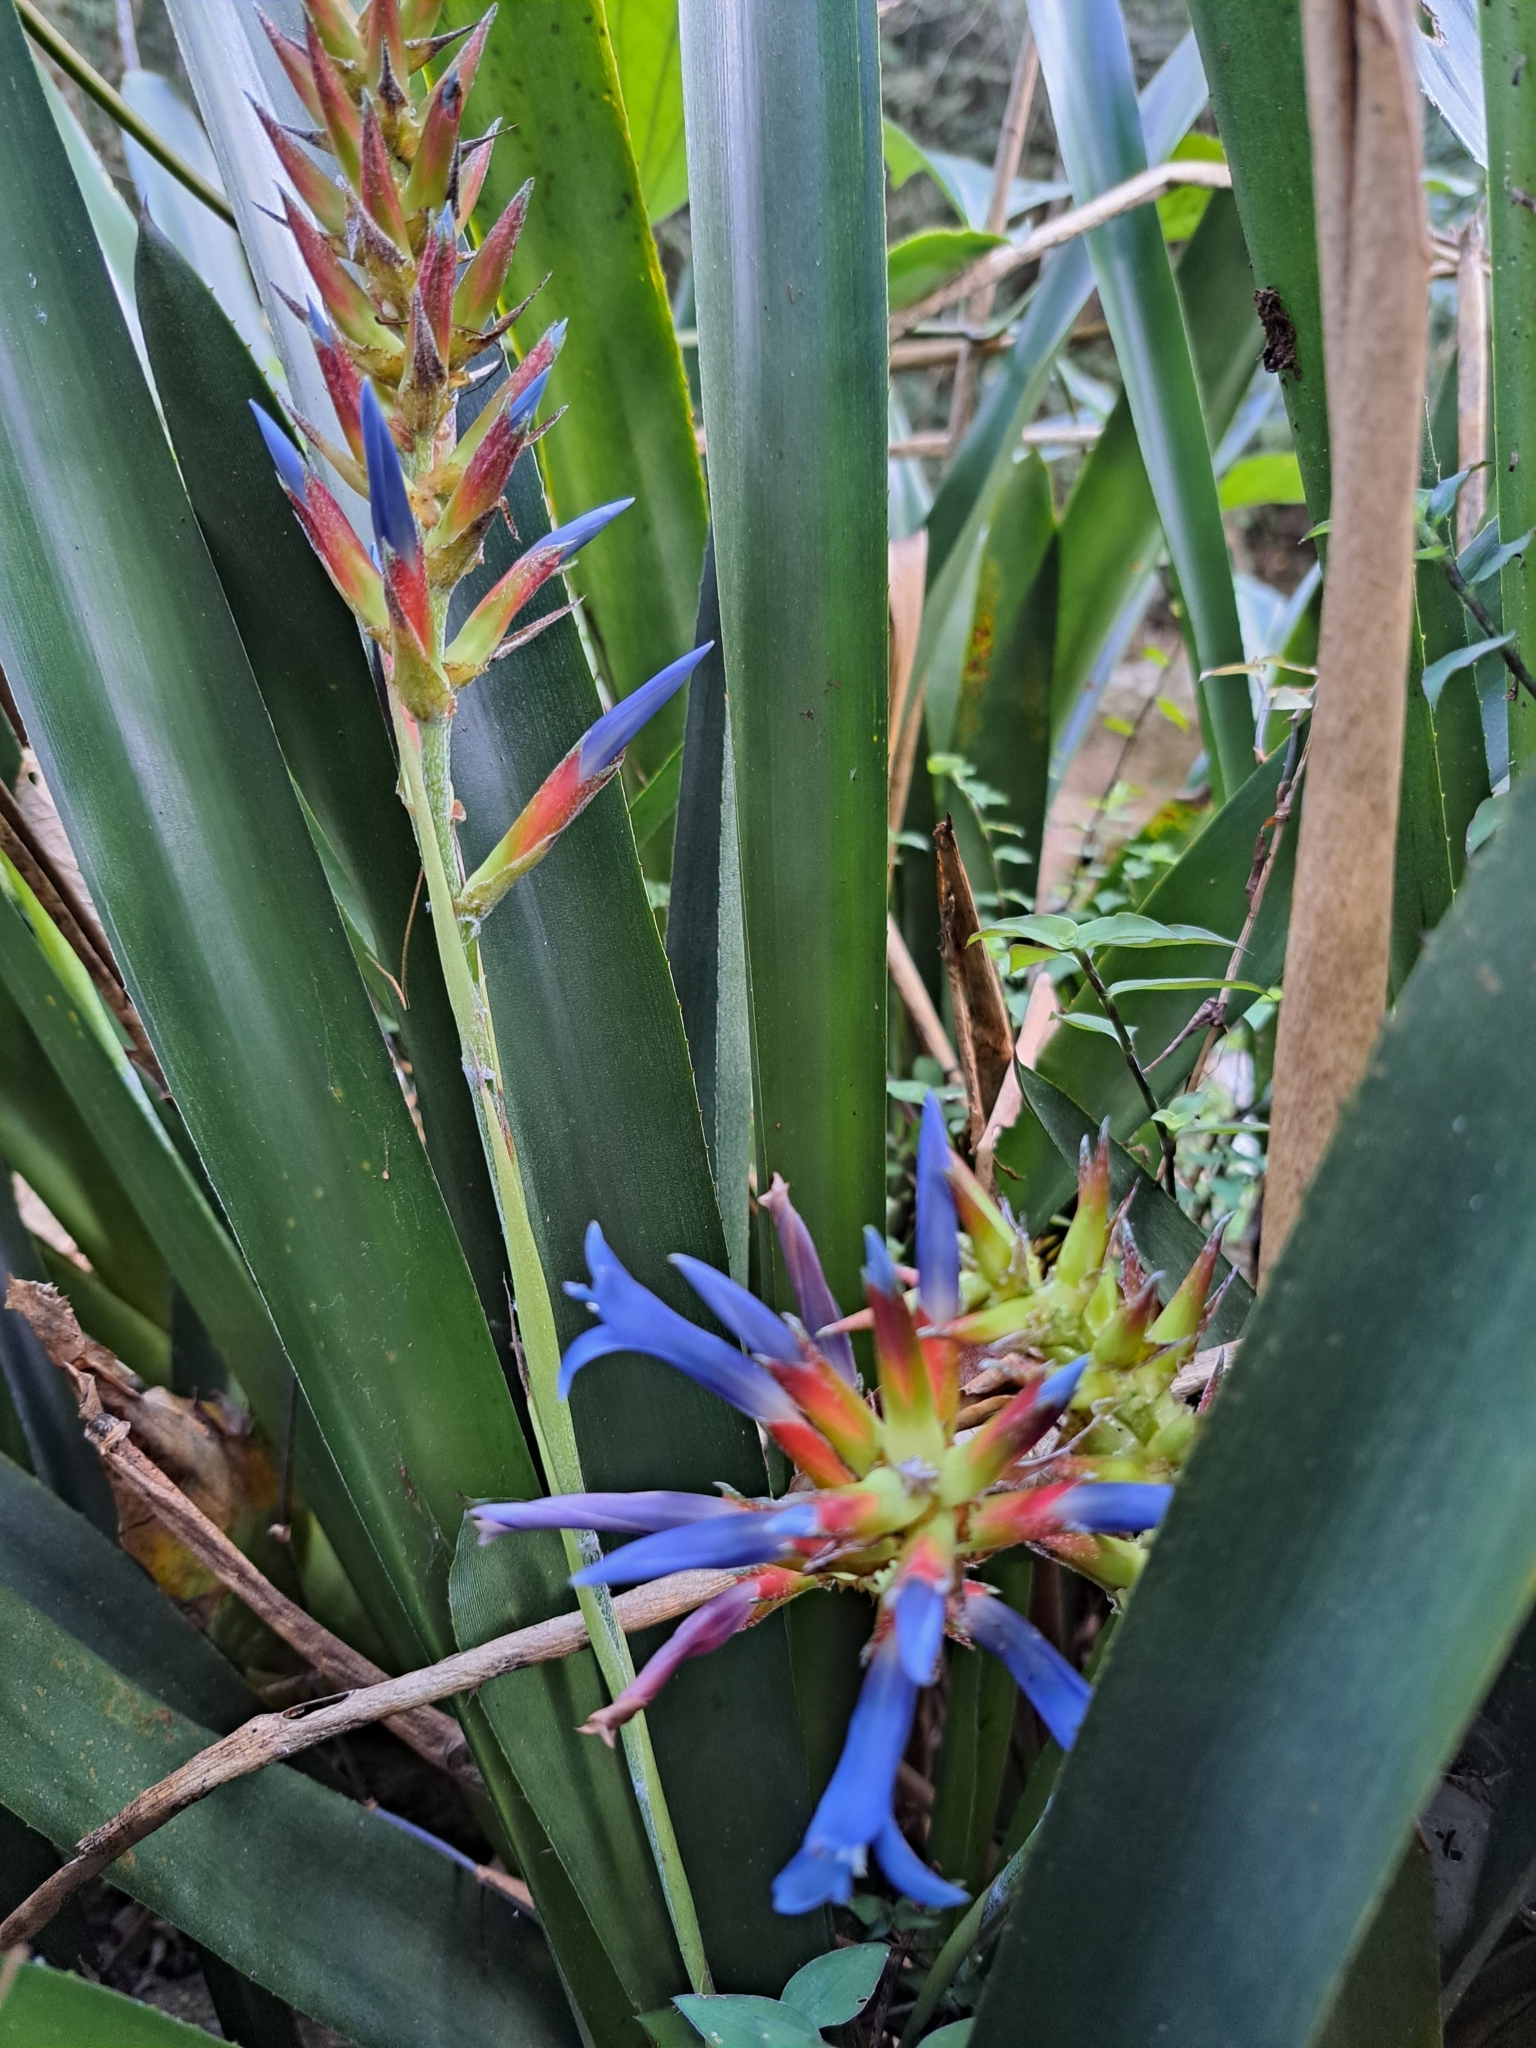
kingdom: Plantae
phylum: Tracheophyta
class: Liliopsida
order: Poales
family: Bromeliaceae
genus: Quesnelia
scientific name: Quesnelia augustocoburgi
